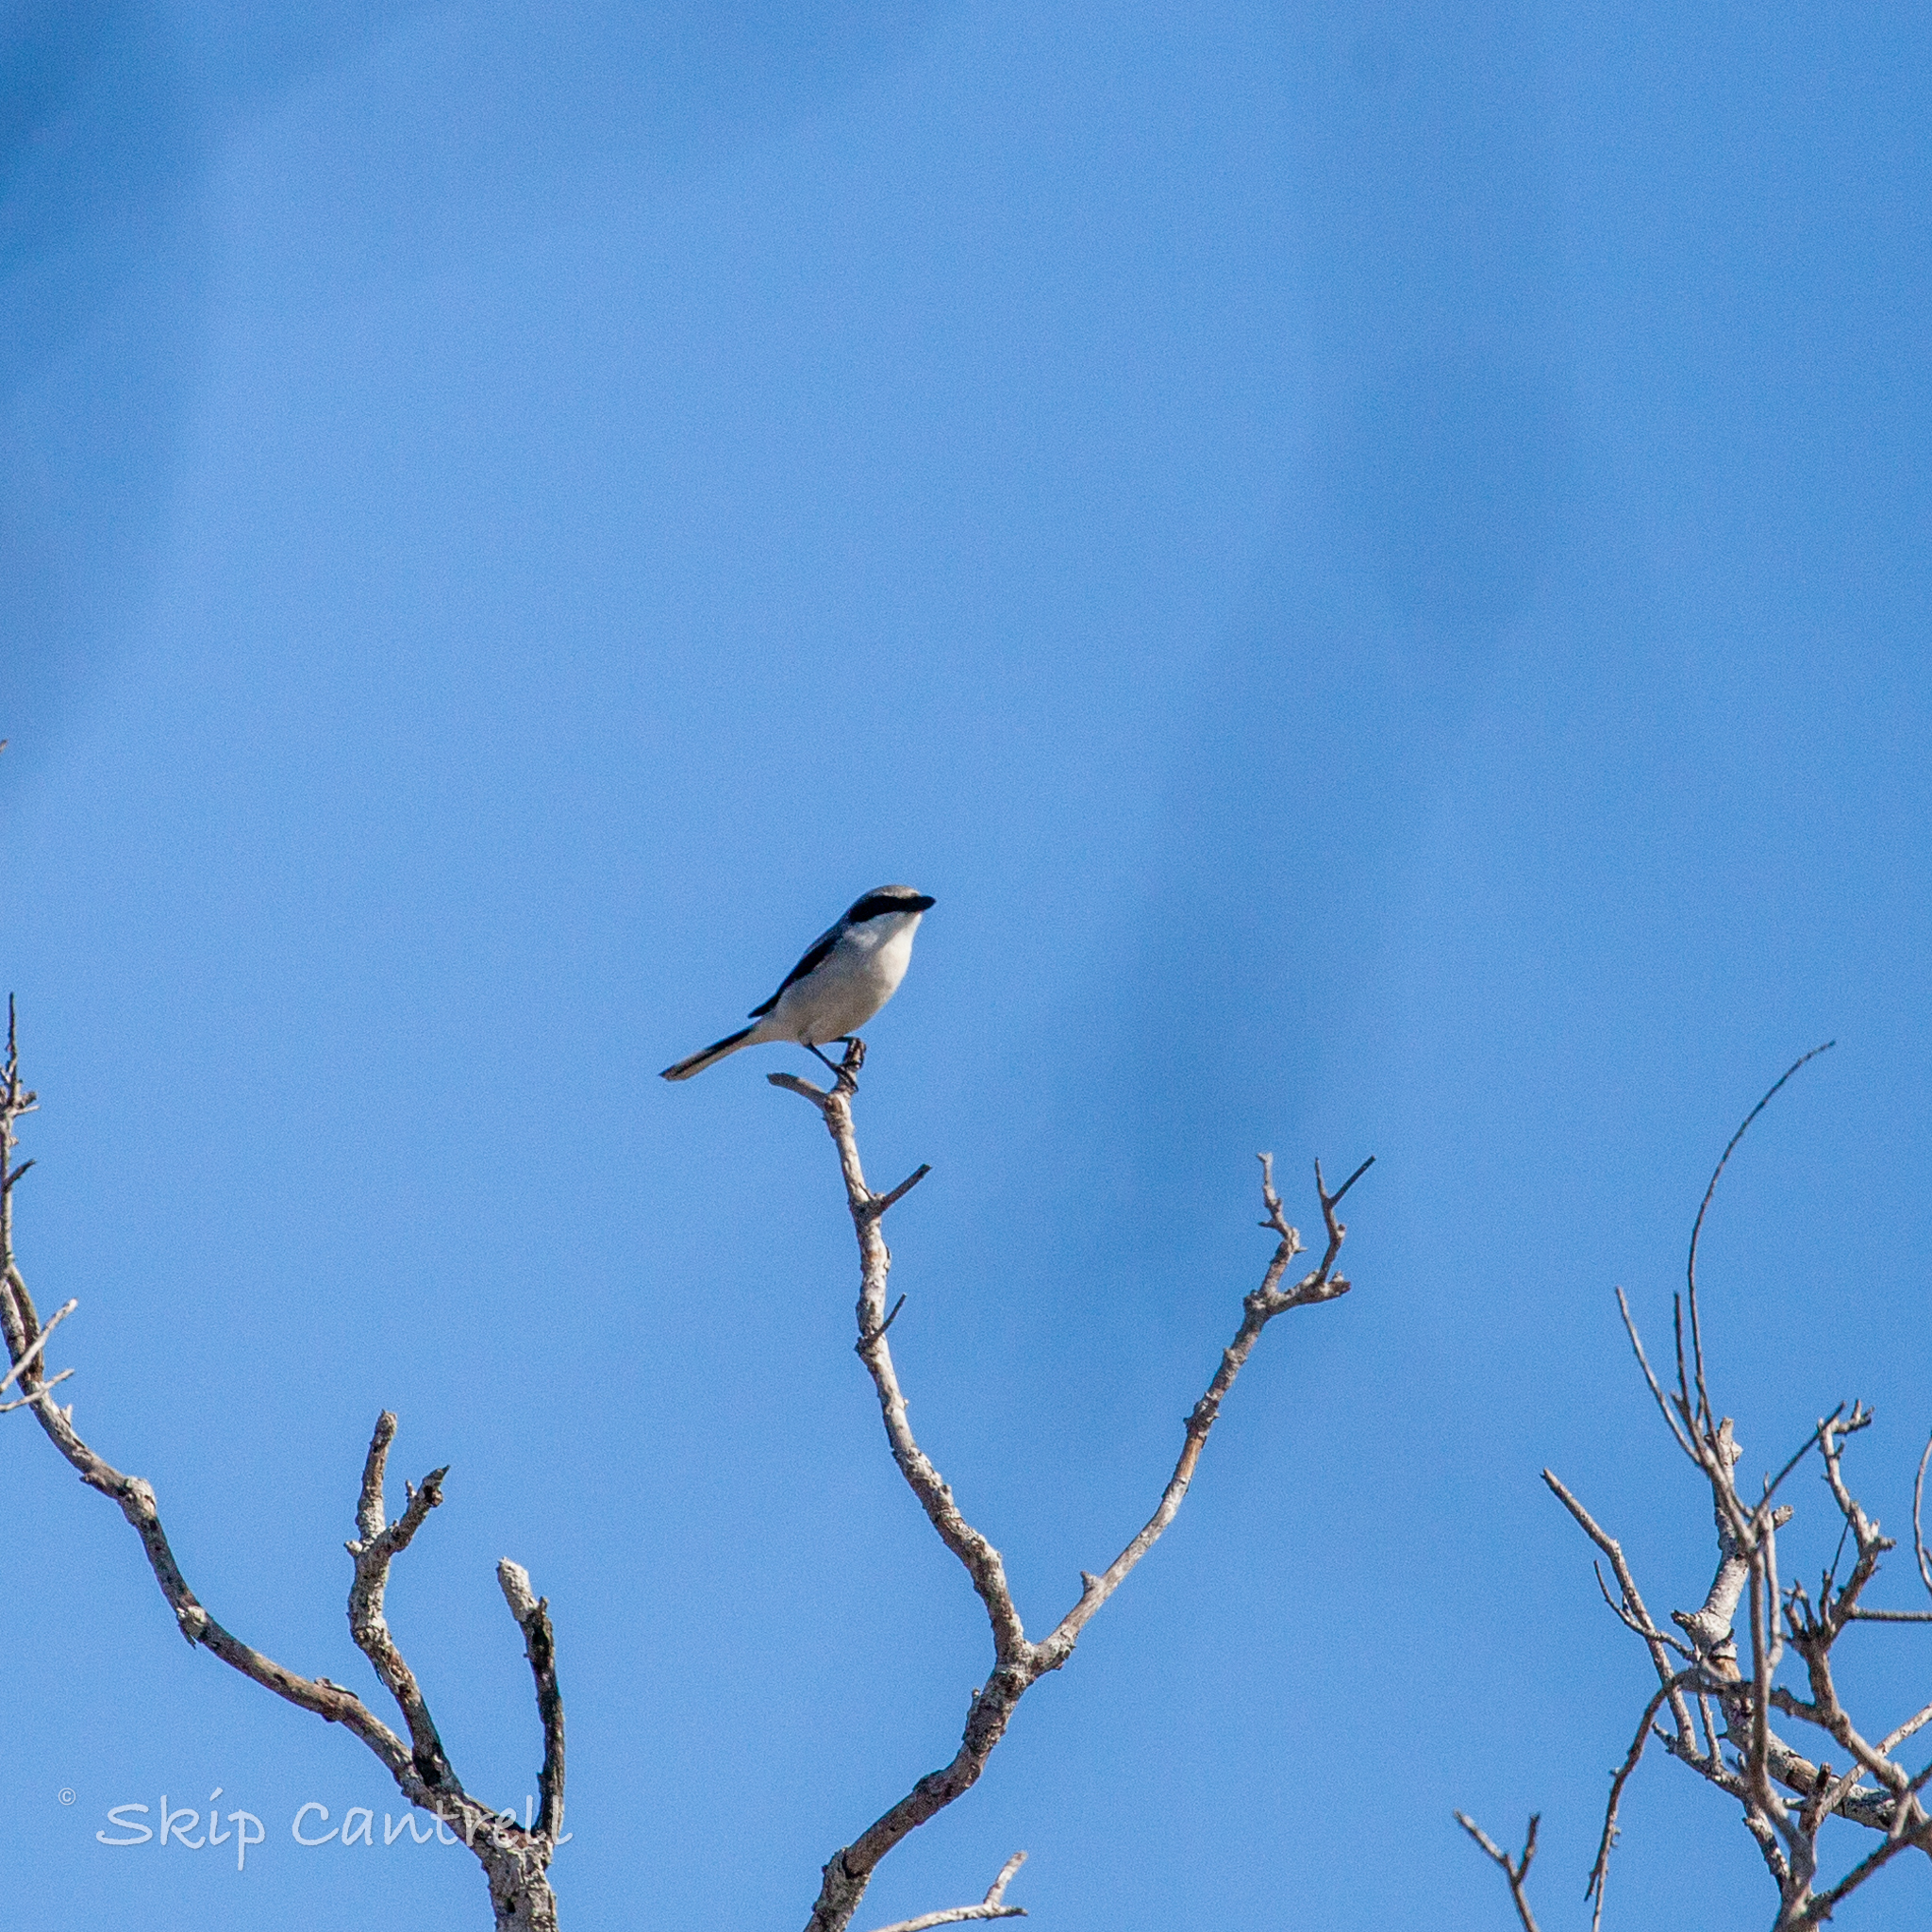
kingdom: Animalia
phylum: Chordata
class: Aves
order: Passeriformes
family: Laniidae
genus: Lanius
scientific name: Lanius ludovicianus
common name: Loggerhead shrike
